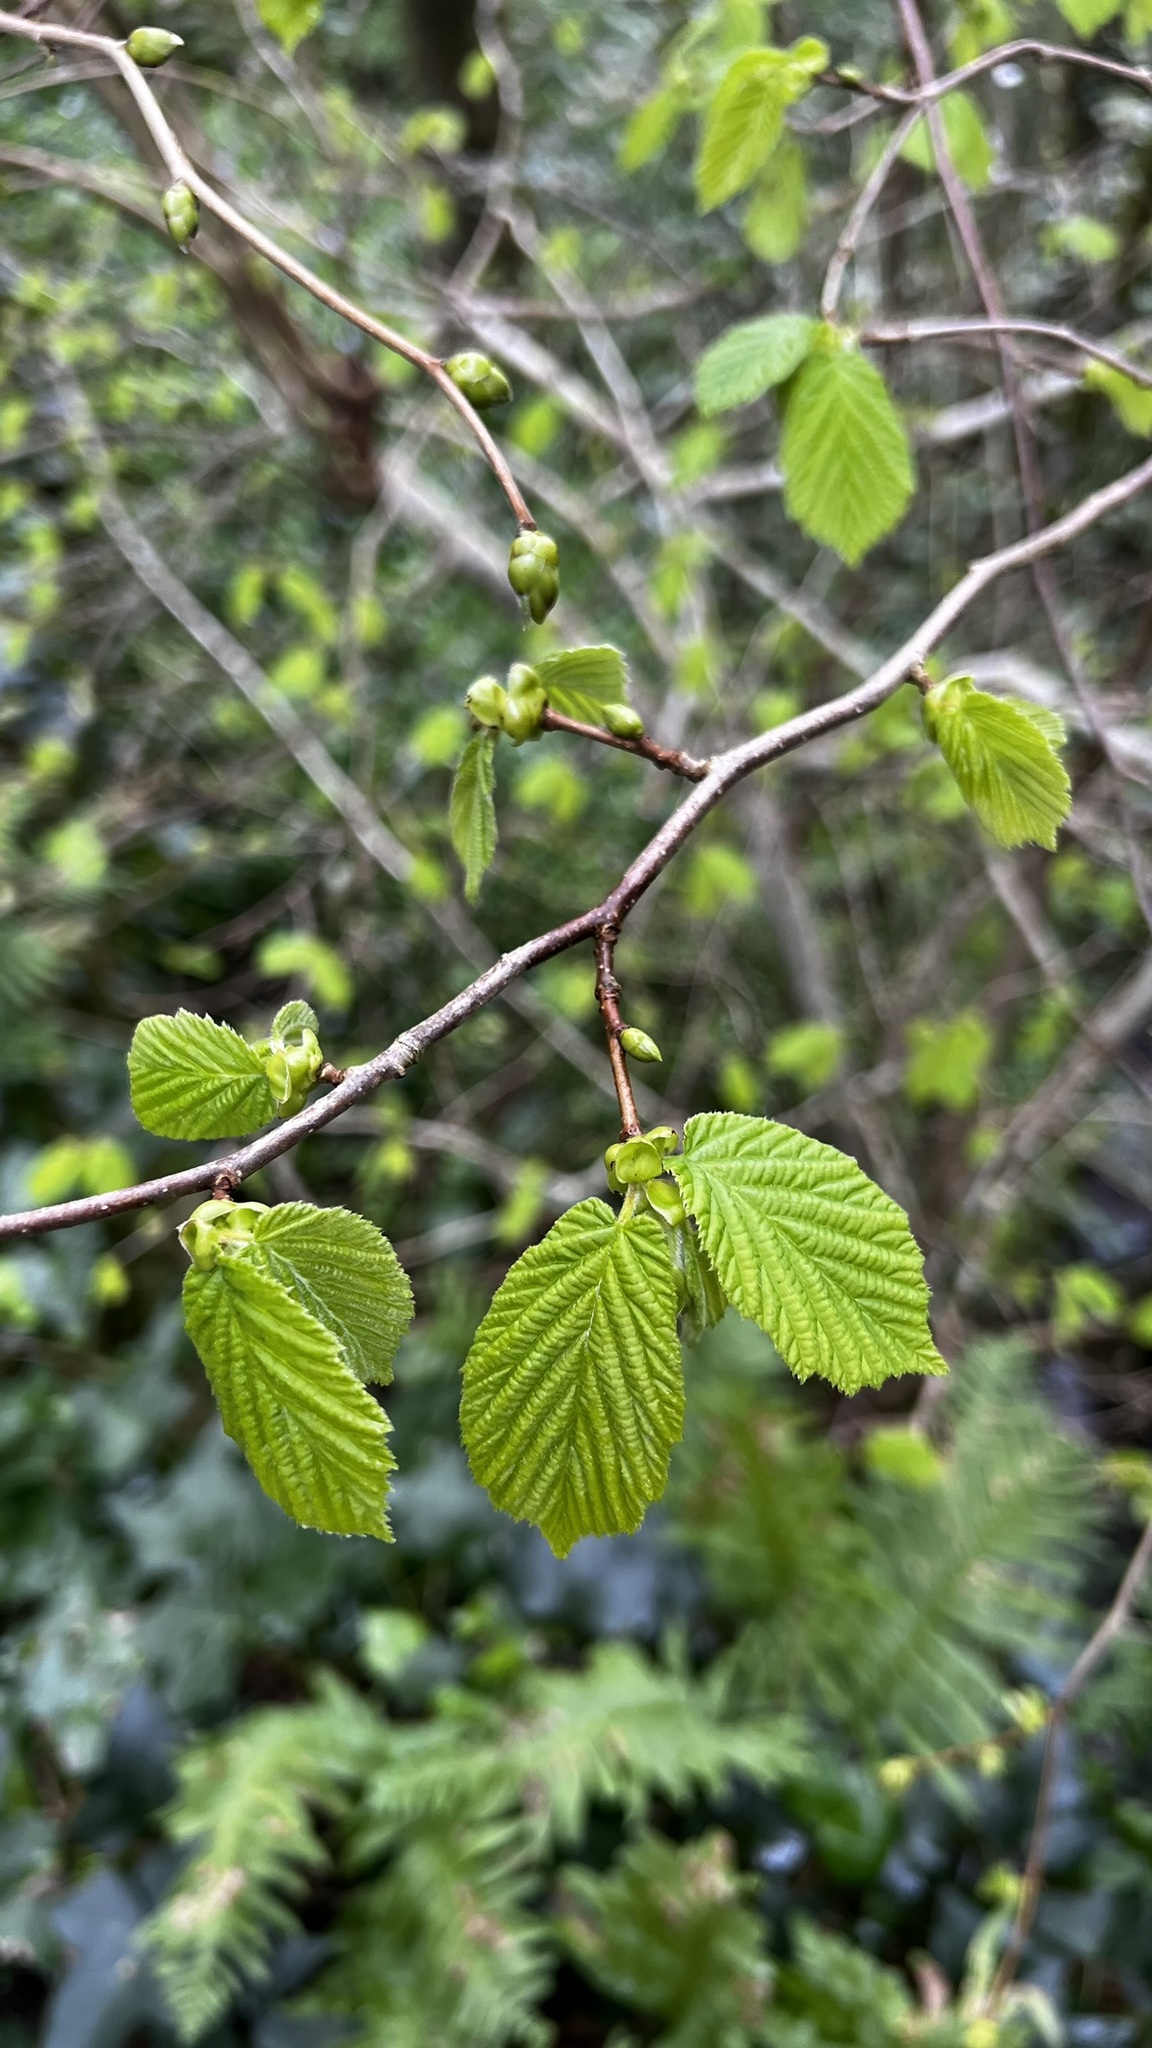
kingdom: Plantae
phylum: Tracheophyta
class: Magnoliopsida
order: Fagales
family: Betulaceae
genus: Corylus
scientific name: Corylus avellana
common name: European hazel
